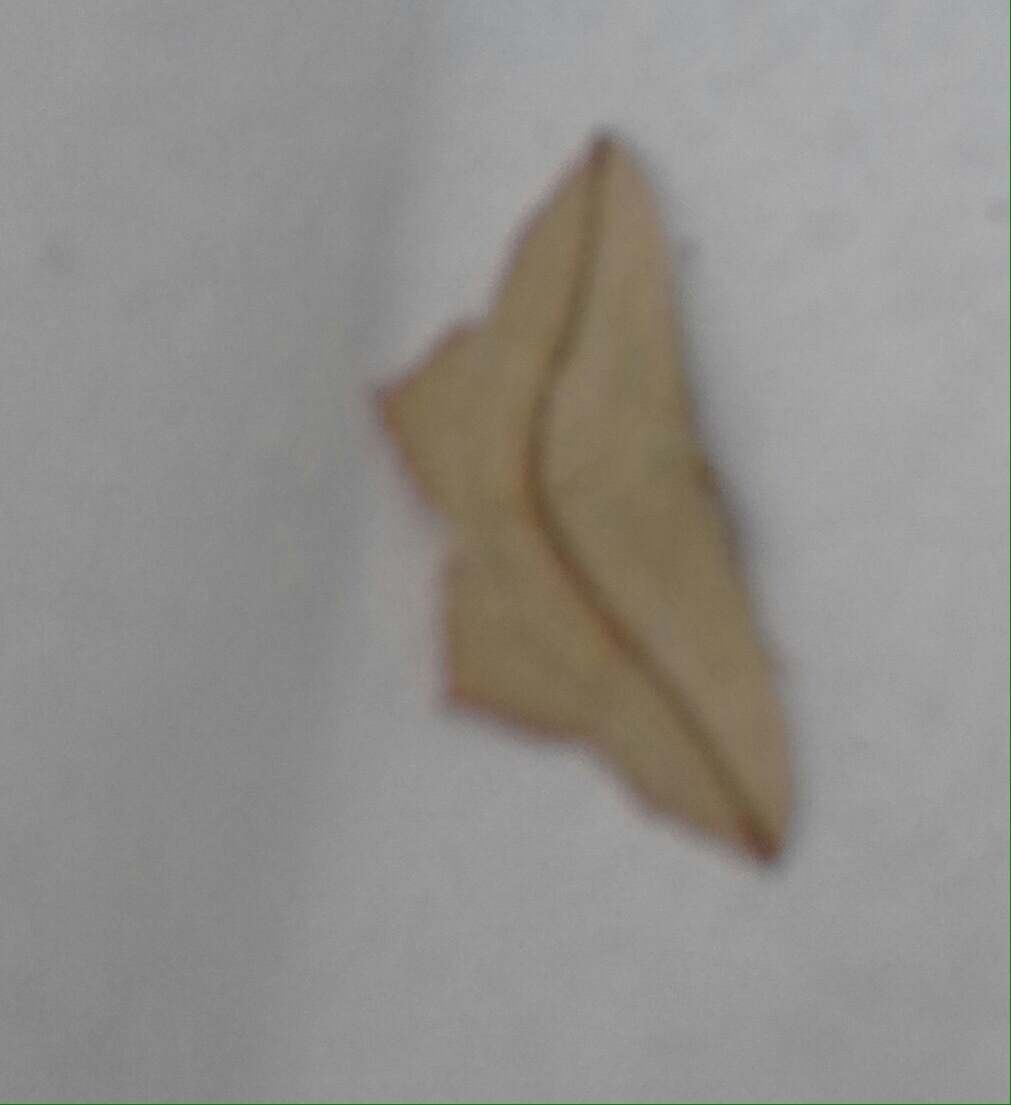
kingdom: Animalia
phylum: Arthropoda
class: Insecta
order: Lepidoptera
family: Geometridae
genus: Timandra
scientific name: Timandra comae
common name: Blood-vein
